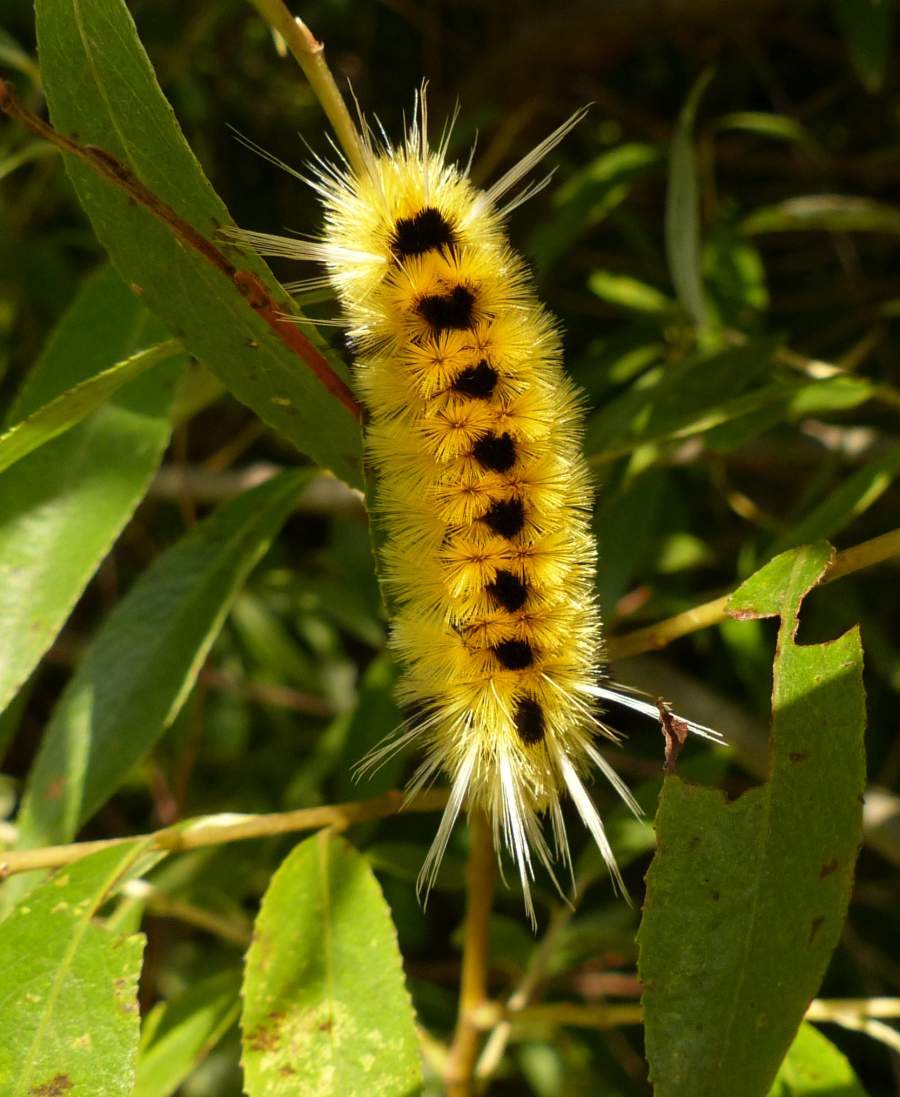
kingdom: Animalia
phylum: Arthropoda
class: Insecta
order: Lepidoptera
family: Erebidae
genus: Lophocampa
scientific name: Lophocampa maculata
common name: Spotted tussock moth
